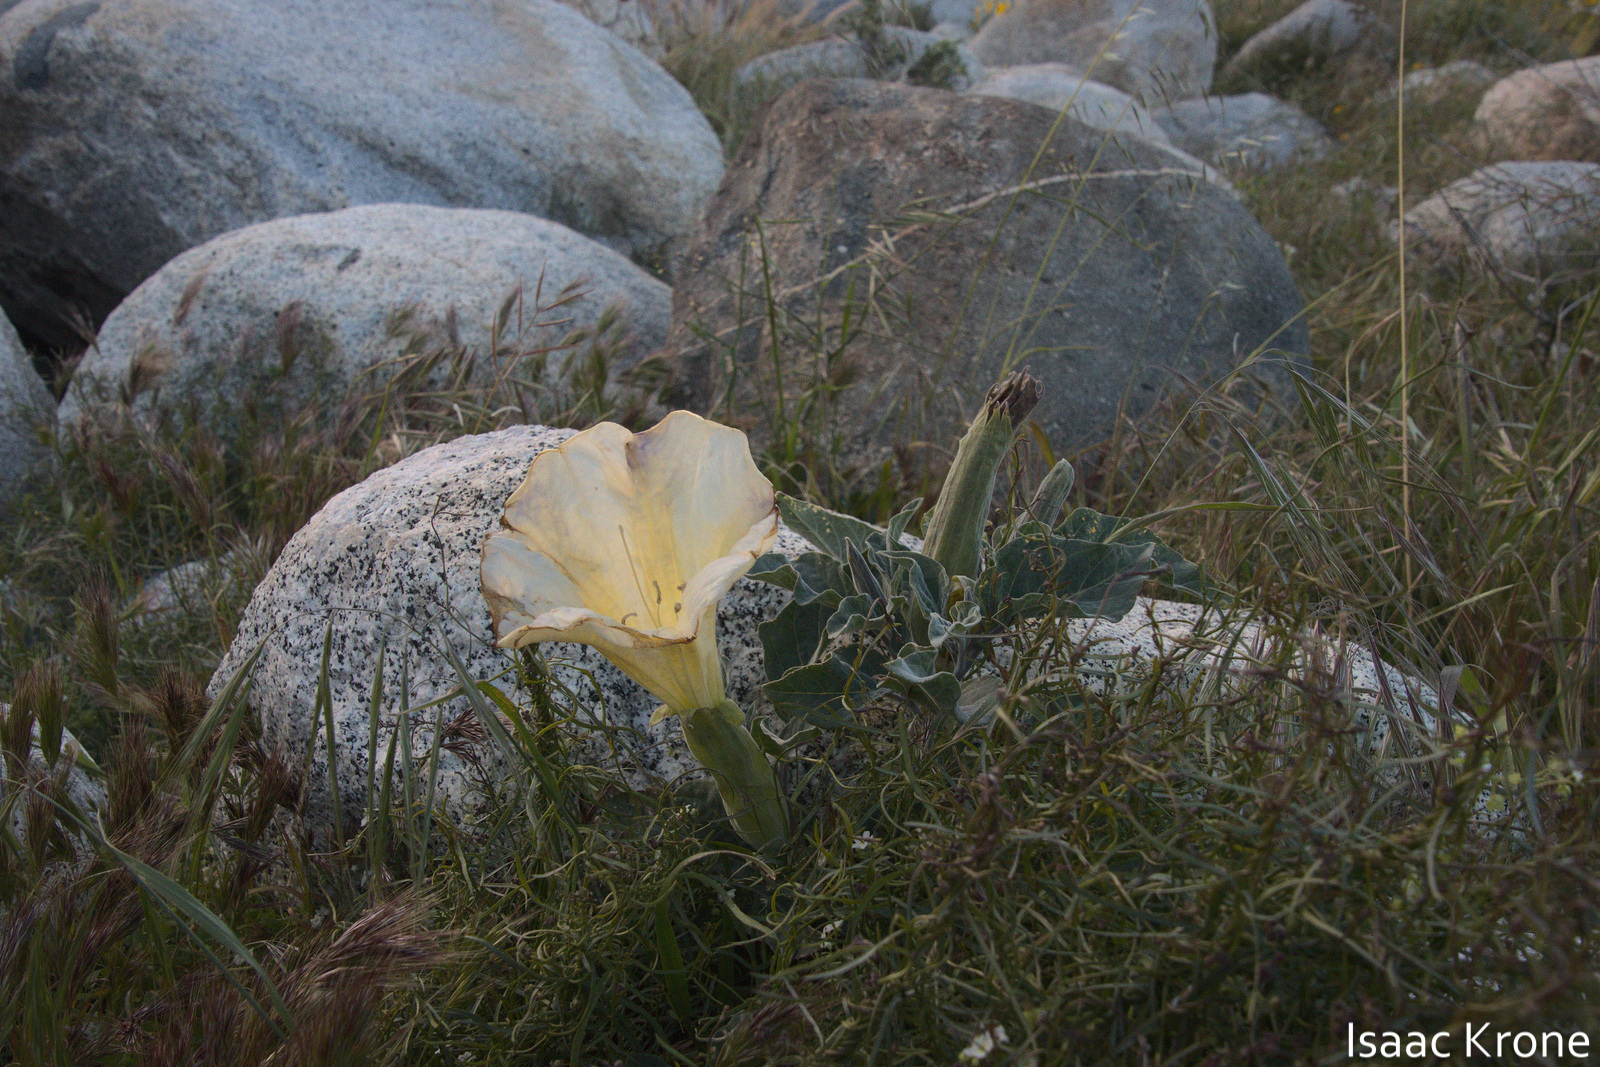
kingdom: Plantae
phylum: Tracheophyta
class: Magnoliopsida
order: Solanales
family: Solanaceae
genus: Datura
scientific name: Datura wrightii
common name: Sacred thorn-apple
